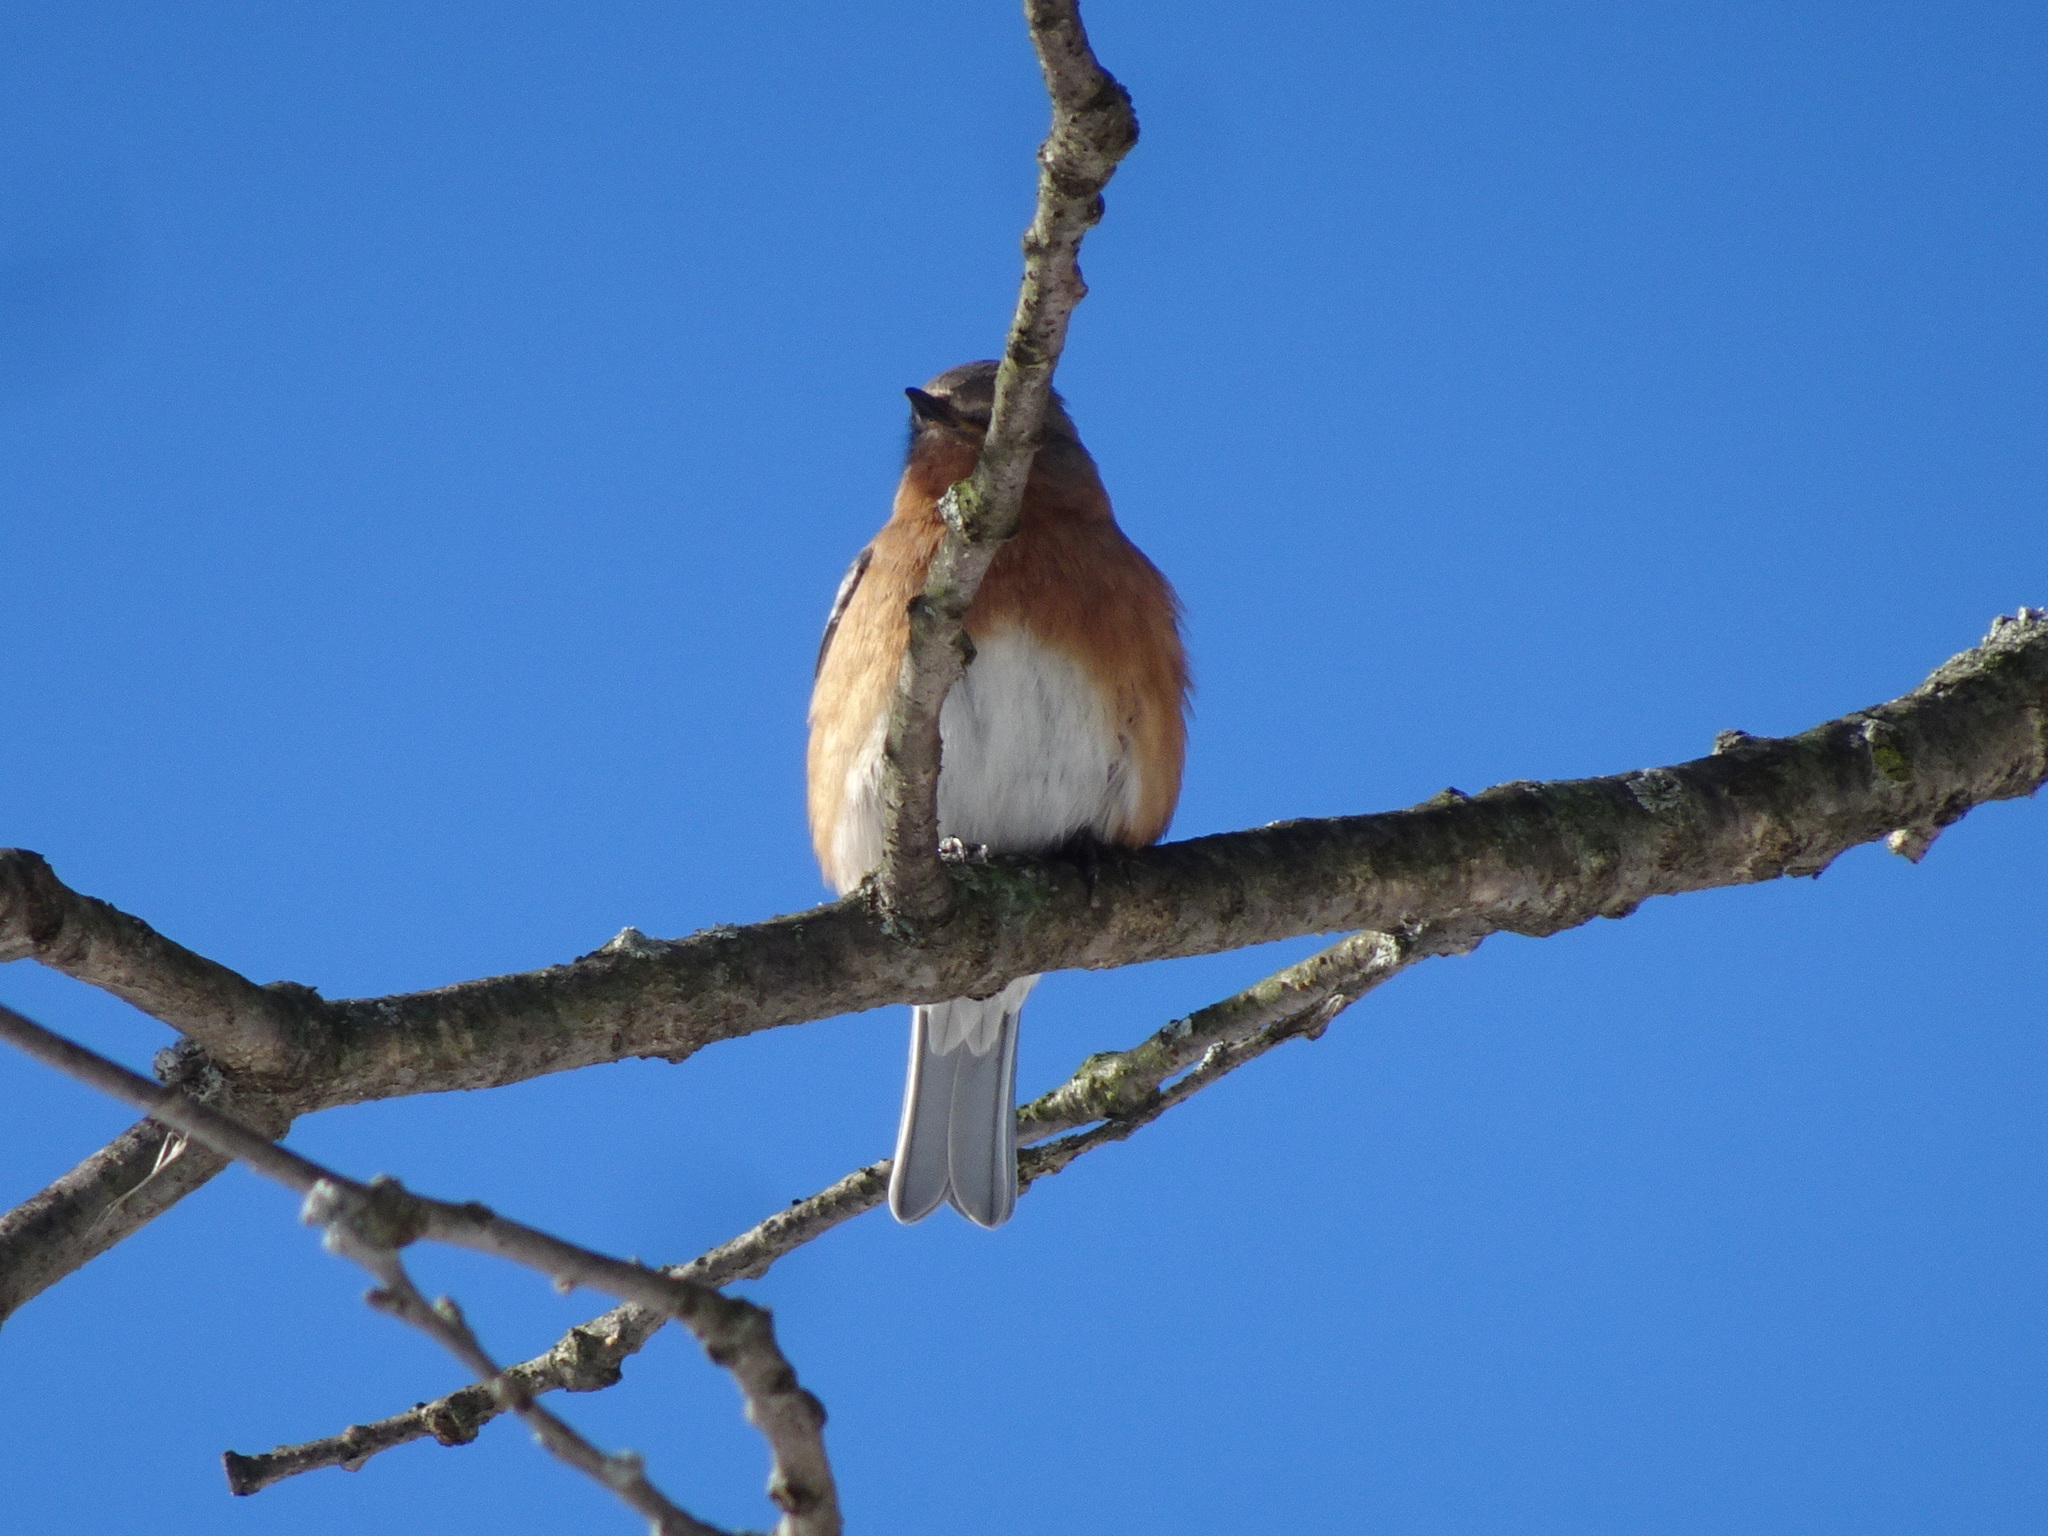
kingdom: Animalia
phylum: Chordata
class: Aves
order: Passeriformes
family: Turdidae
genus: Sialia
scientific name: Sialia sialis
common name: Eastern bluebird
